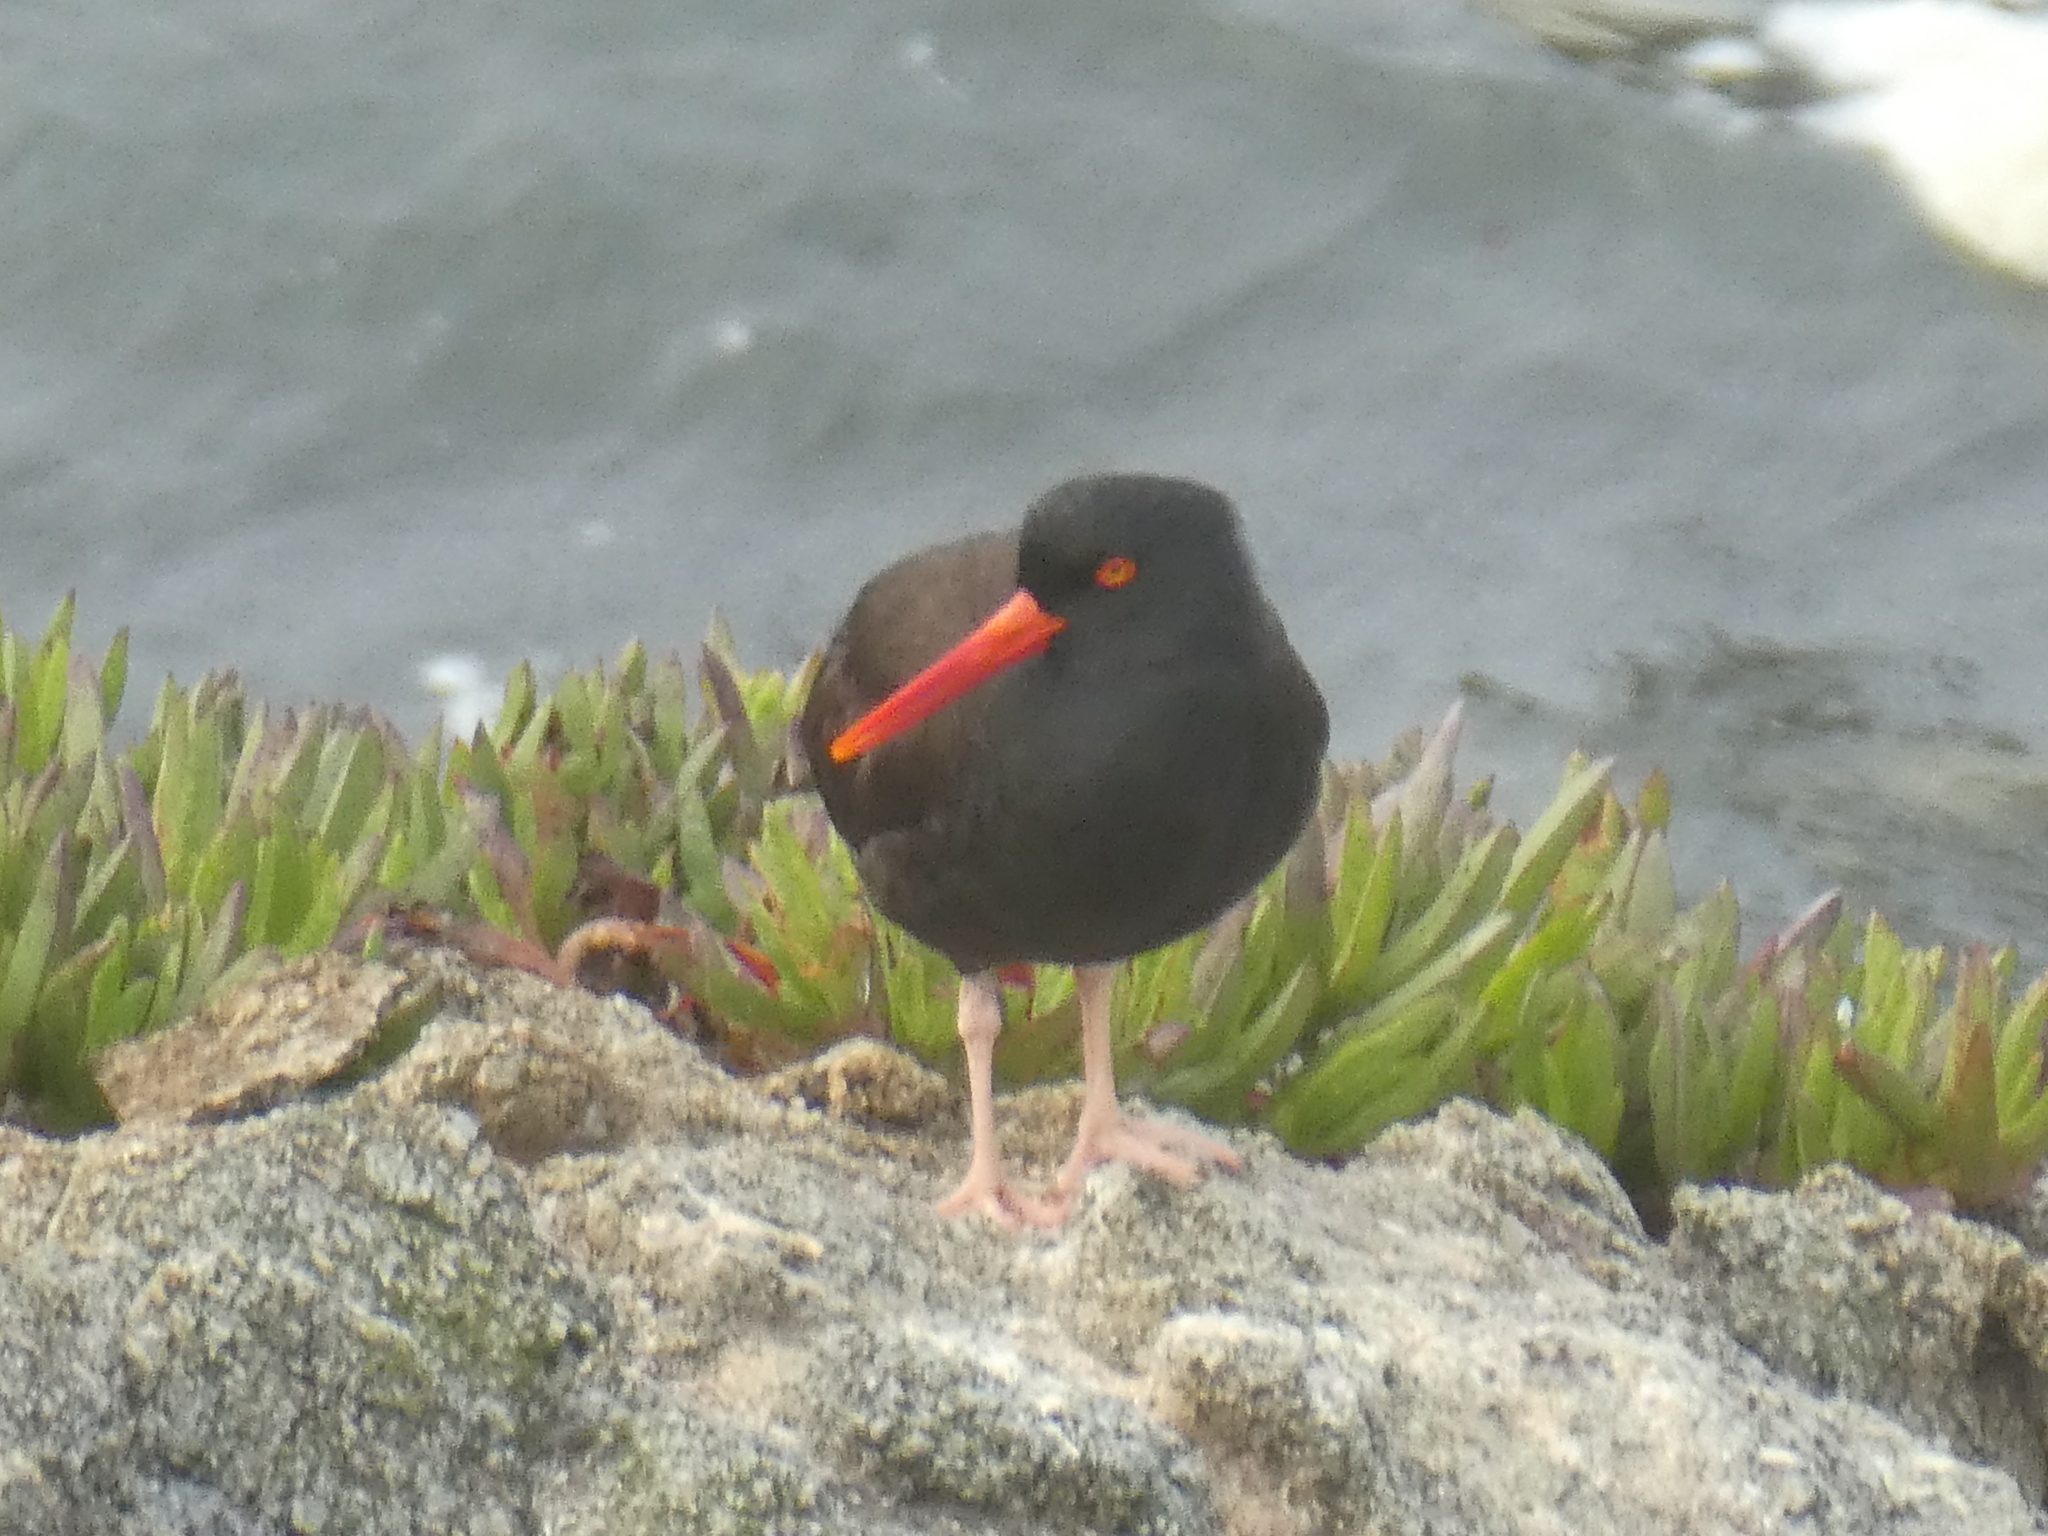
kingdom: Animalia
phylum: Chordata
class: Aves
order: Charadriiformes
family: Haematopodidae
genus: Haematopus
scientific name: Haematopus bachmani
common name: Black oystercatcher
